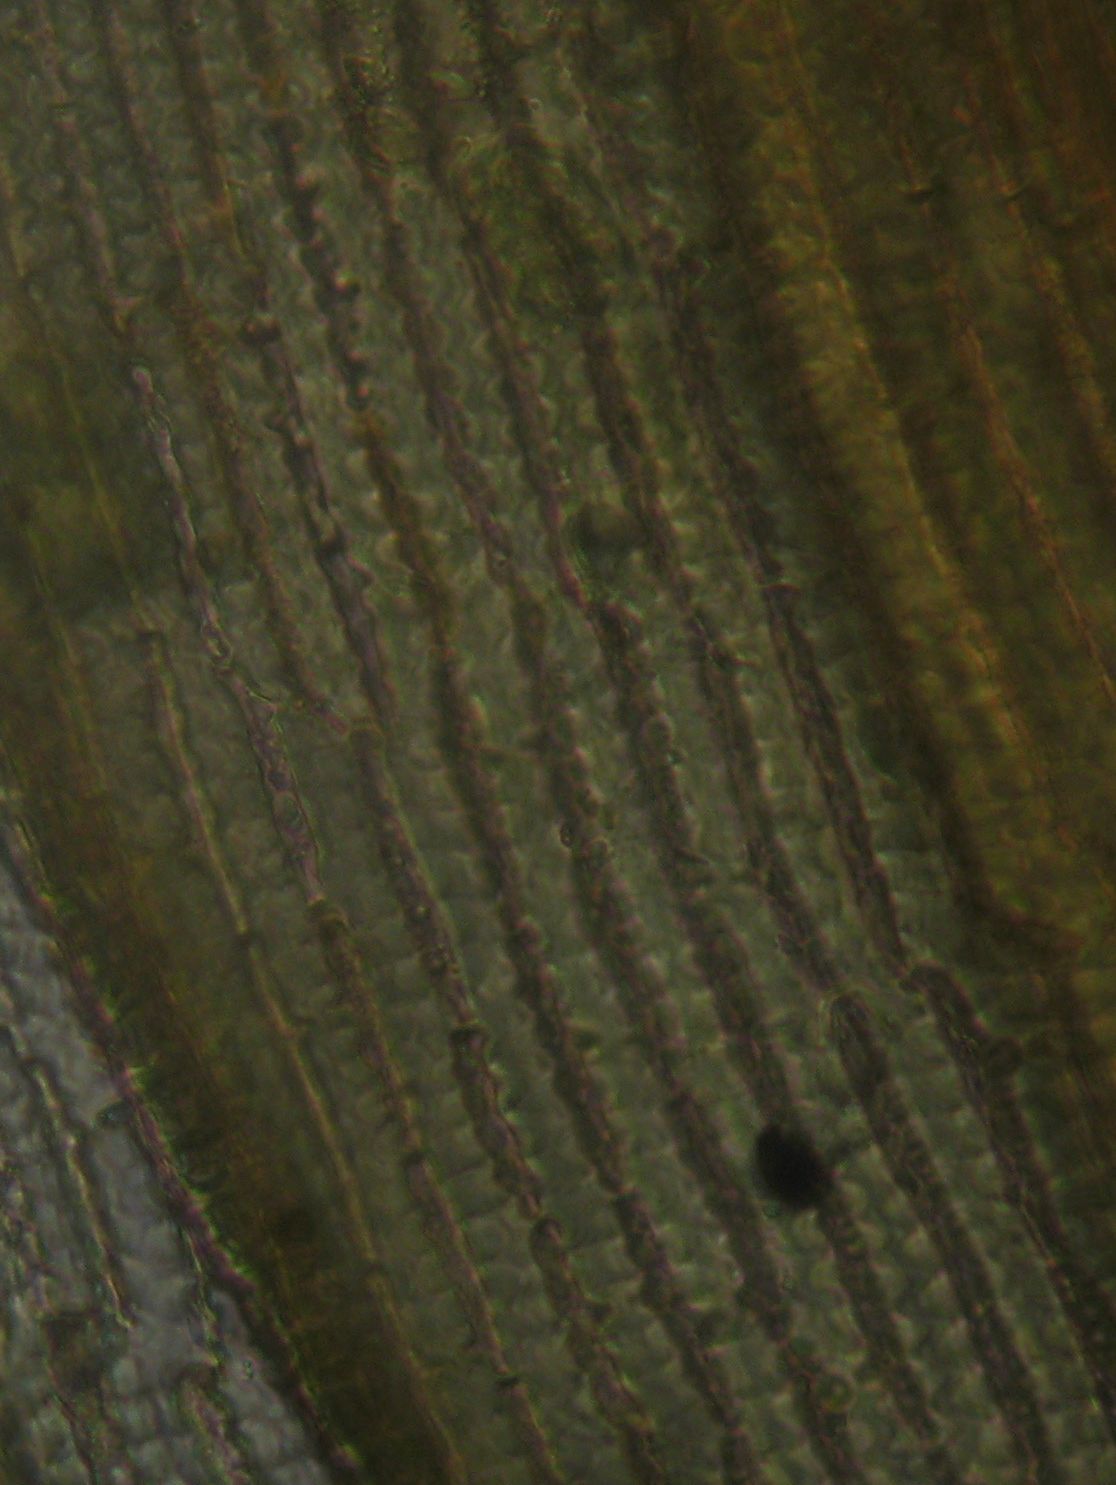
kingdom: Plantae
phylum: Bryophyta
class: Bryopsida
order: Grimmiales
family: Grimmiaceae
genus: Racomitrium
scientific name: Racomitrium pruinosum
